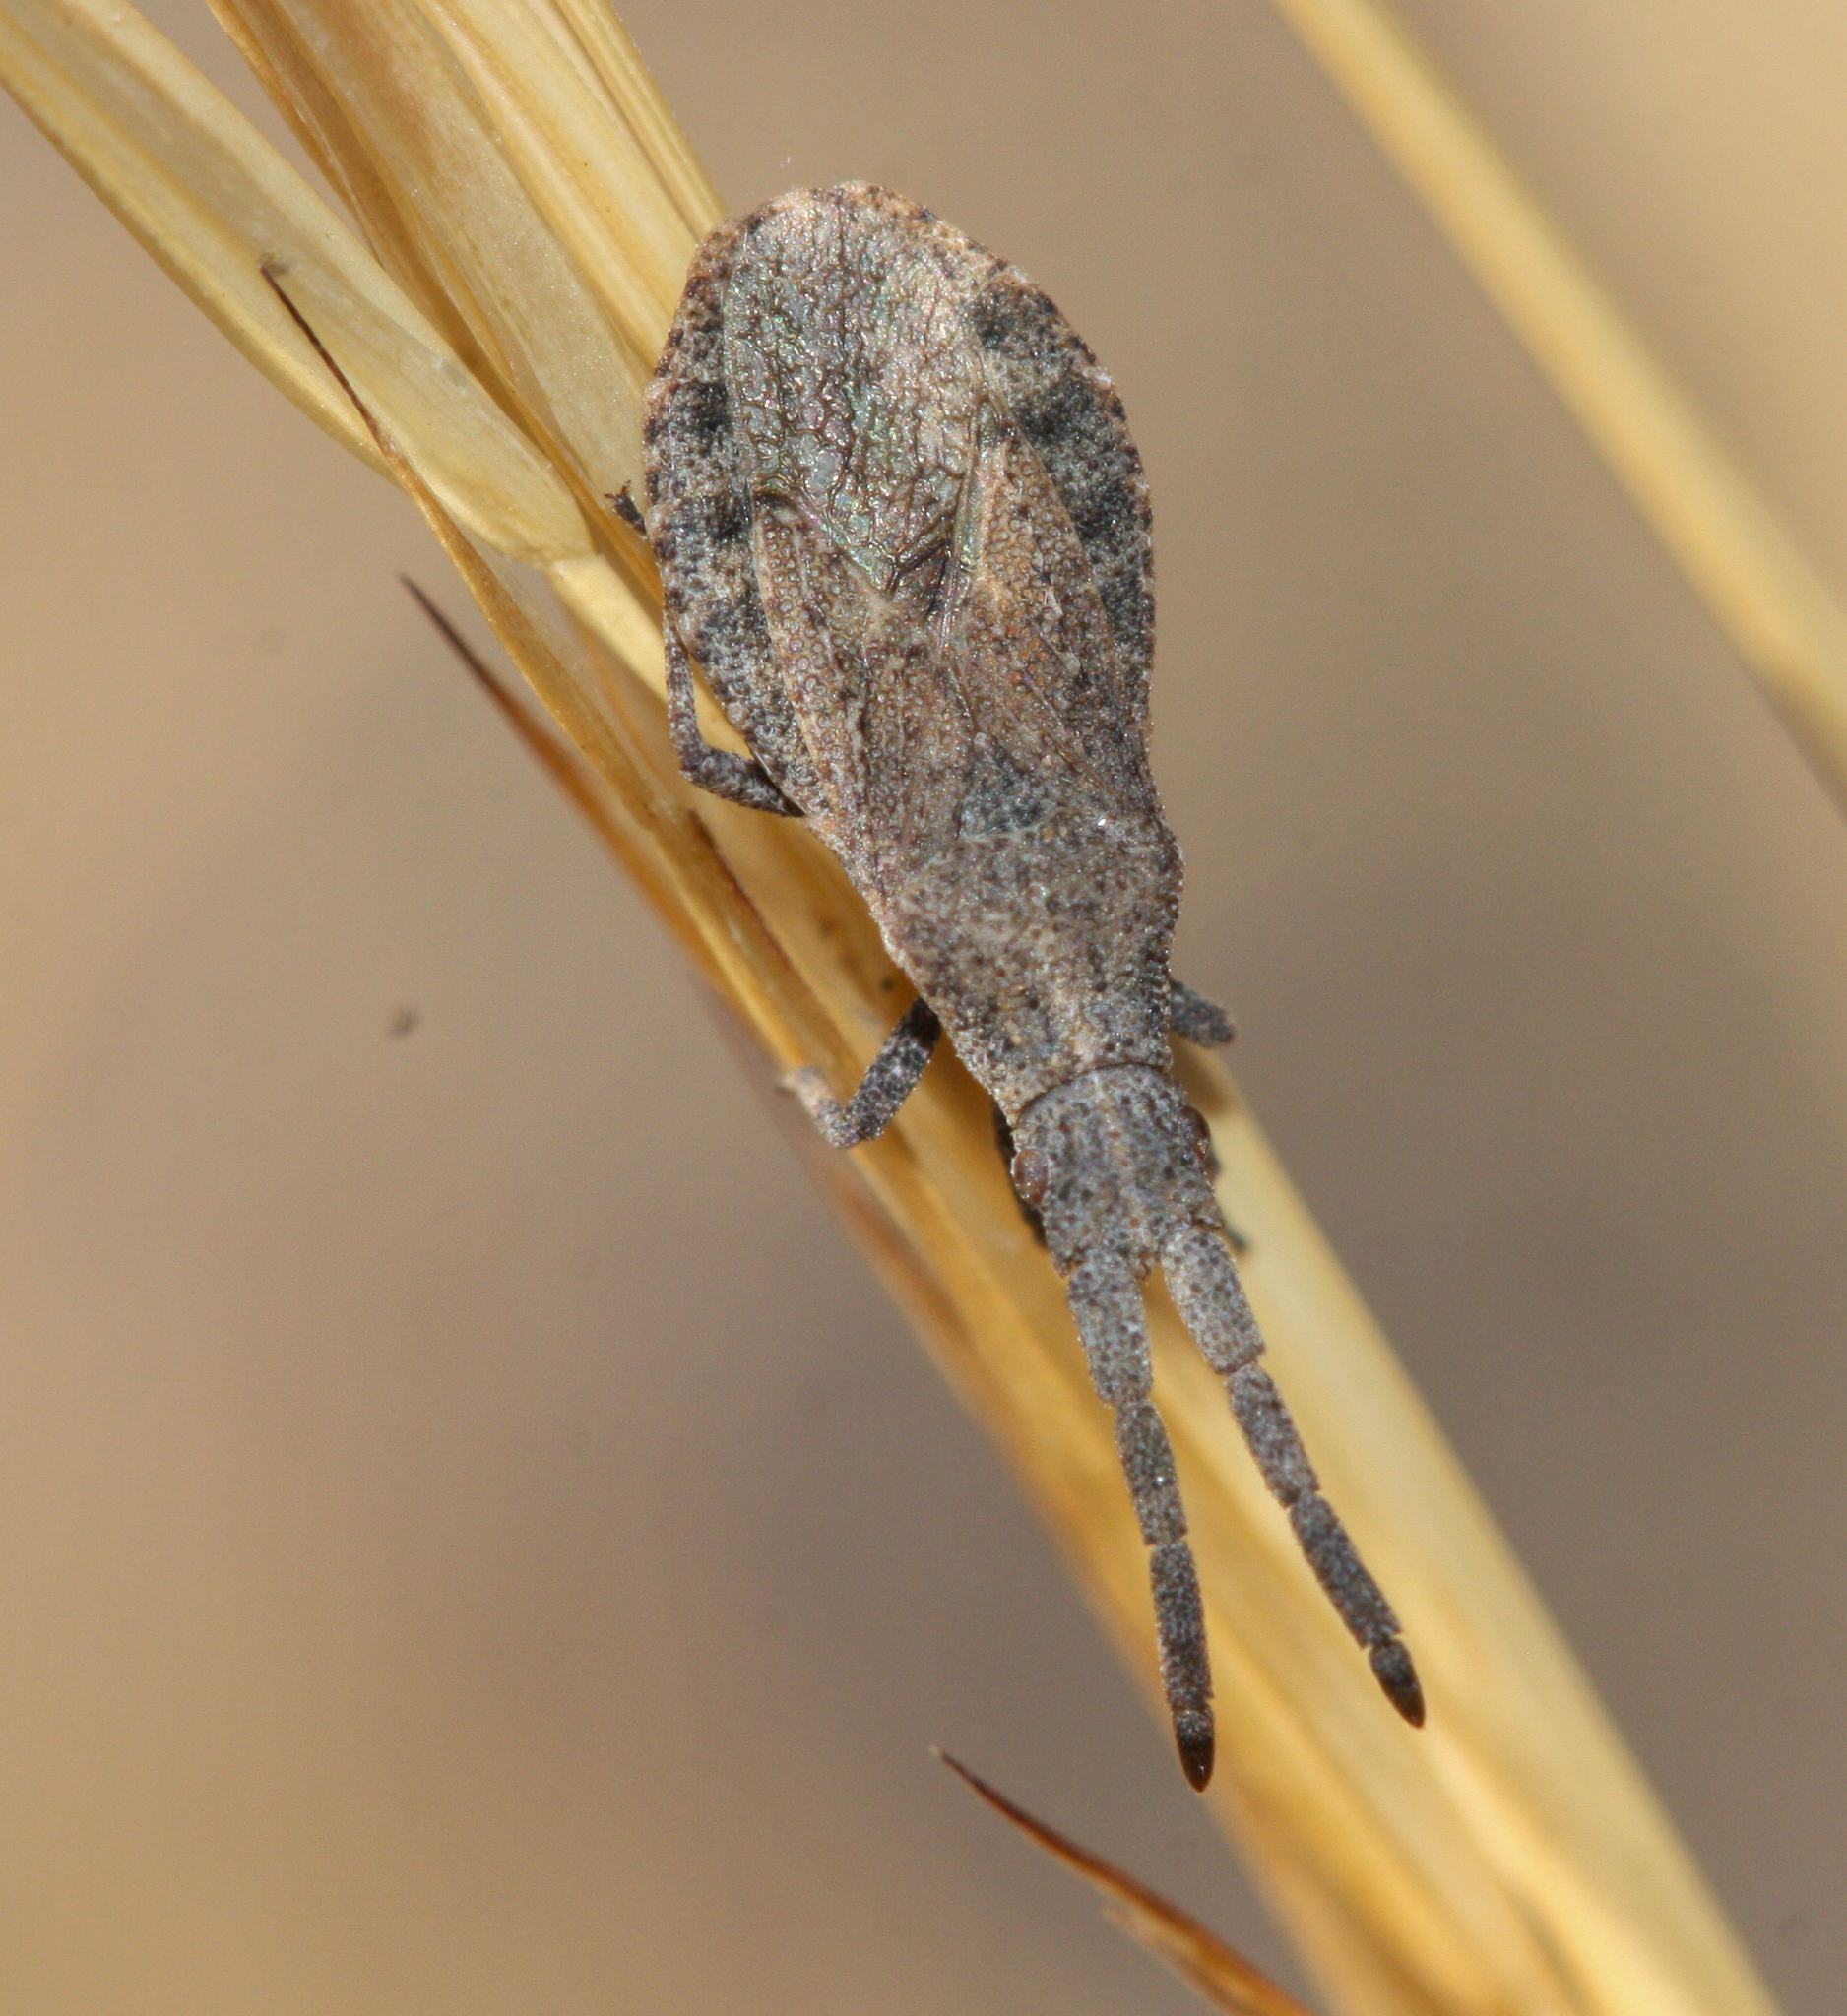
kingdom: Animalia
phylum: Arthropoda
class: Insecta
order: Hemiptera
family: Coreidae
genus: Scolopocerus
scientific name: Scolopocerus secundarius
